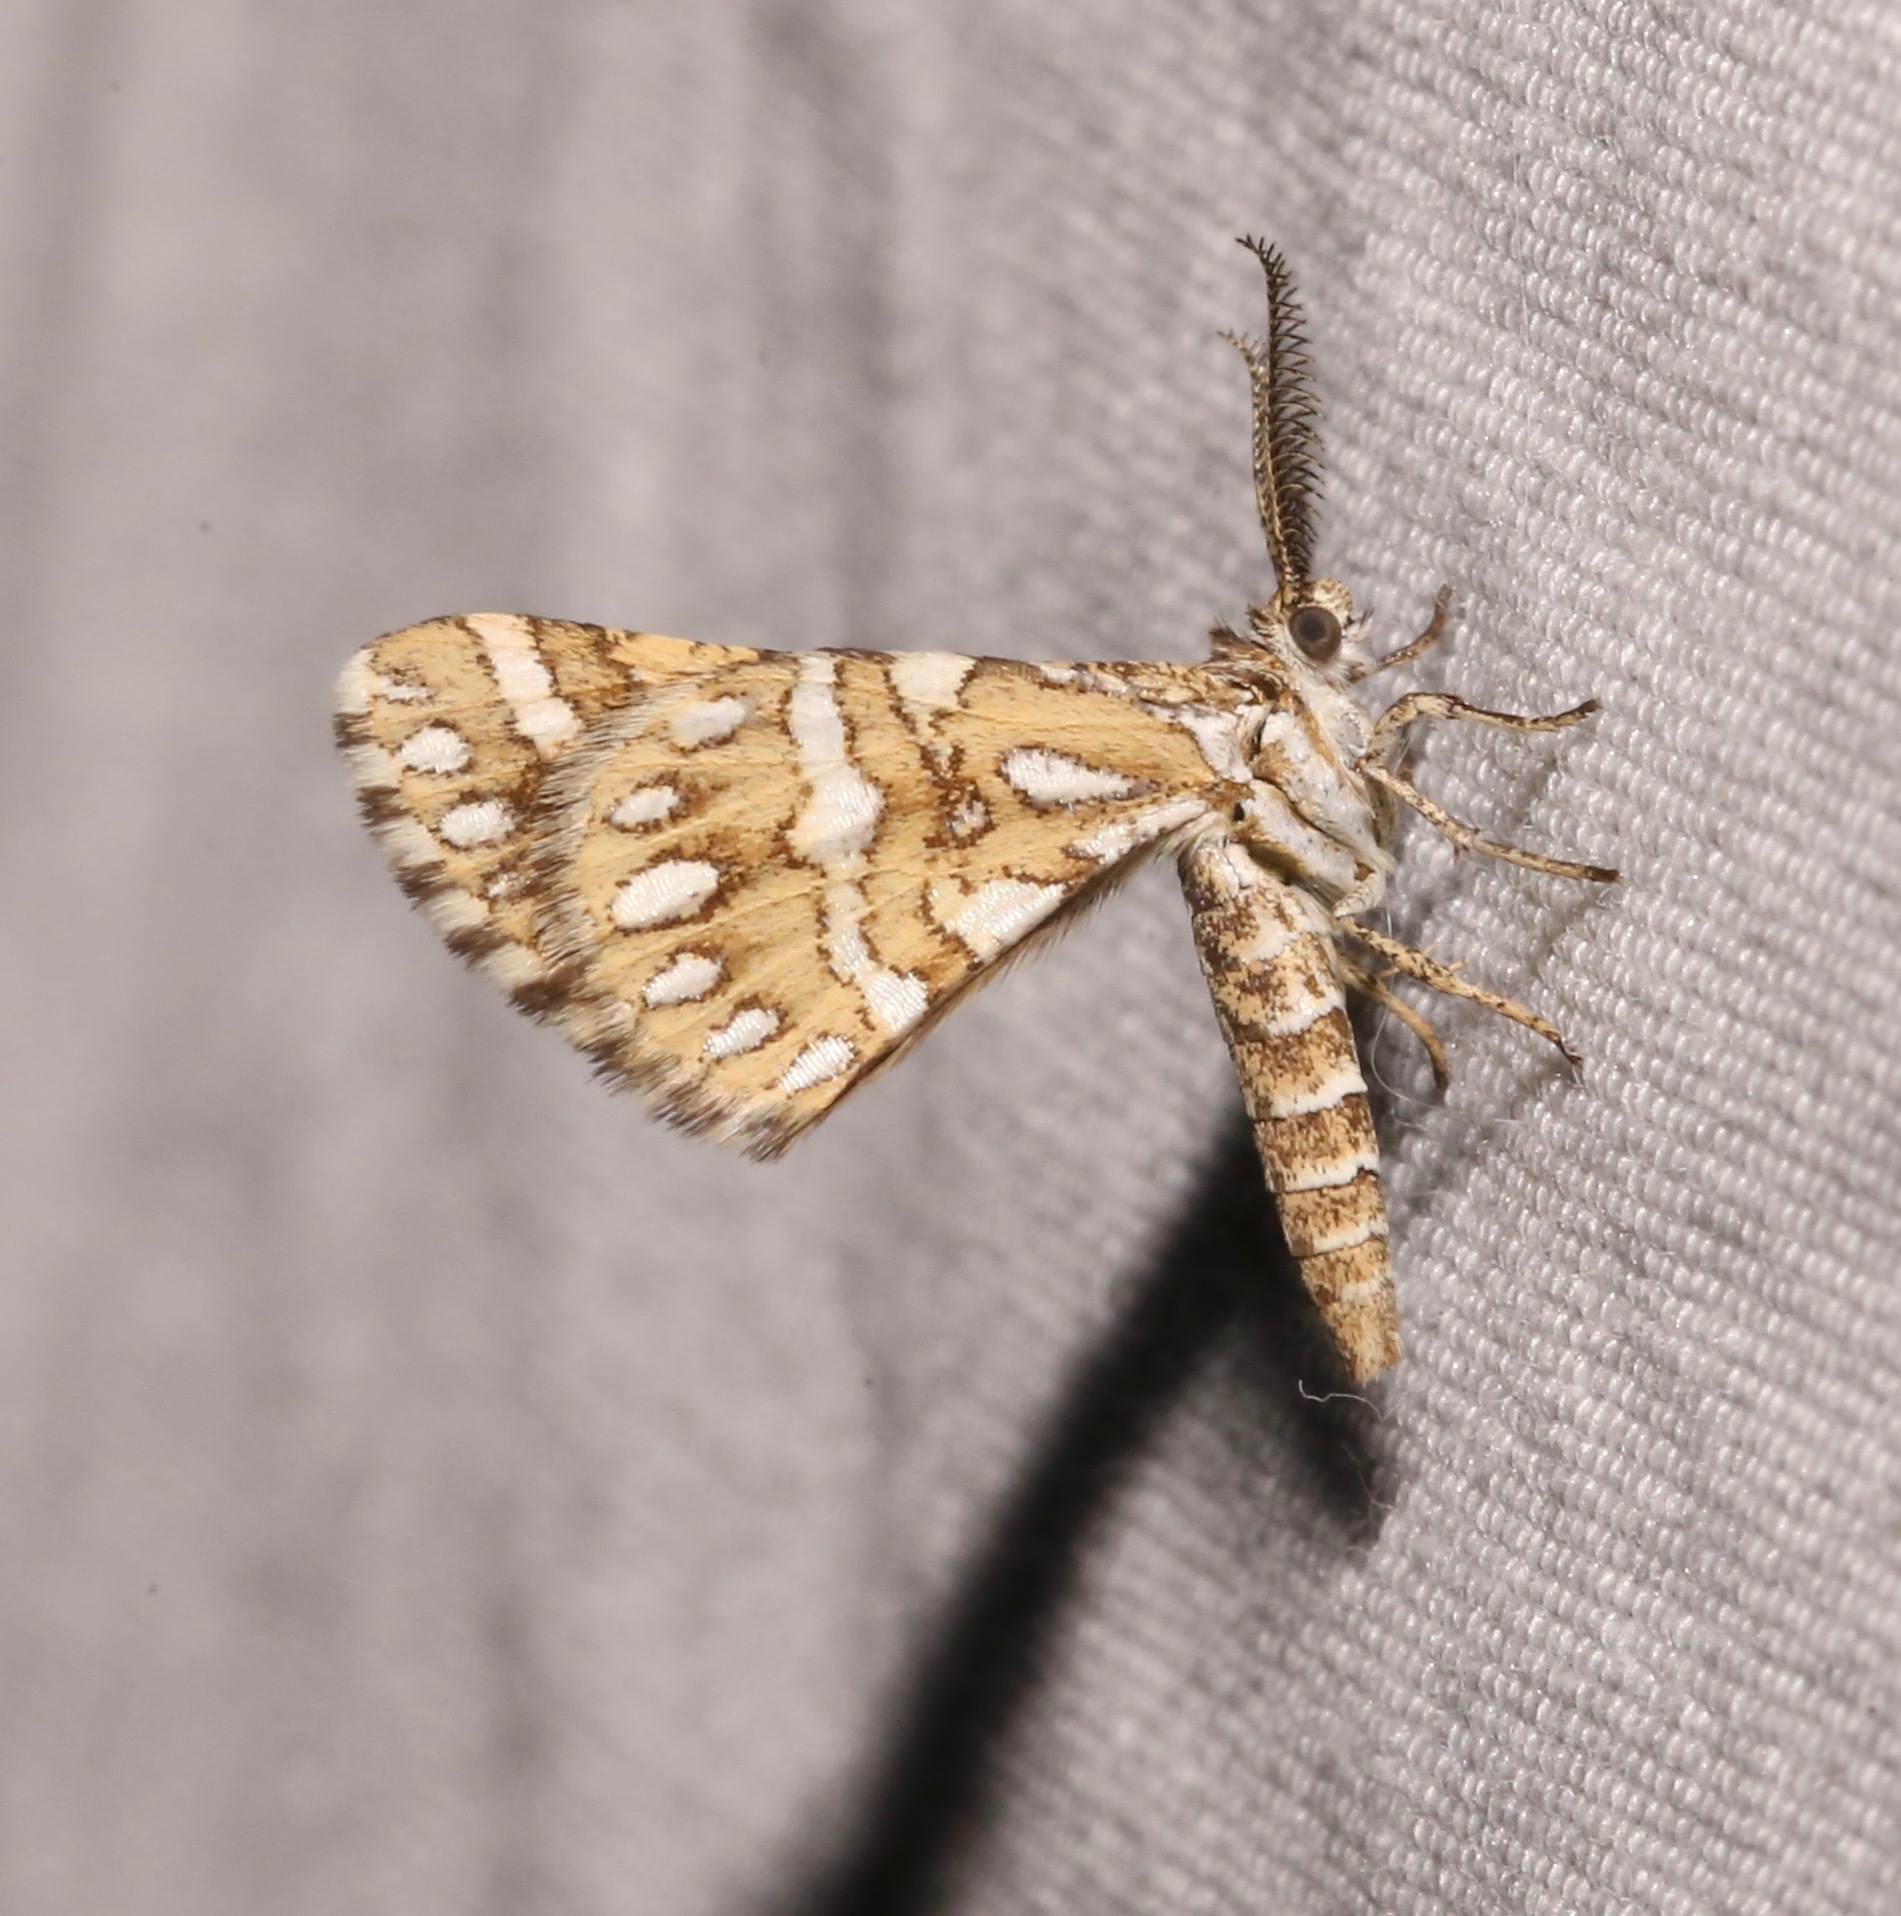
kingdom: Animalia
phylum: Arthropoda
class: Insecta
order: Lepidoptera
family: Geometridae
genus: Narraga
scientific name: Narraga fimetaria
